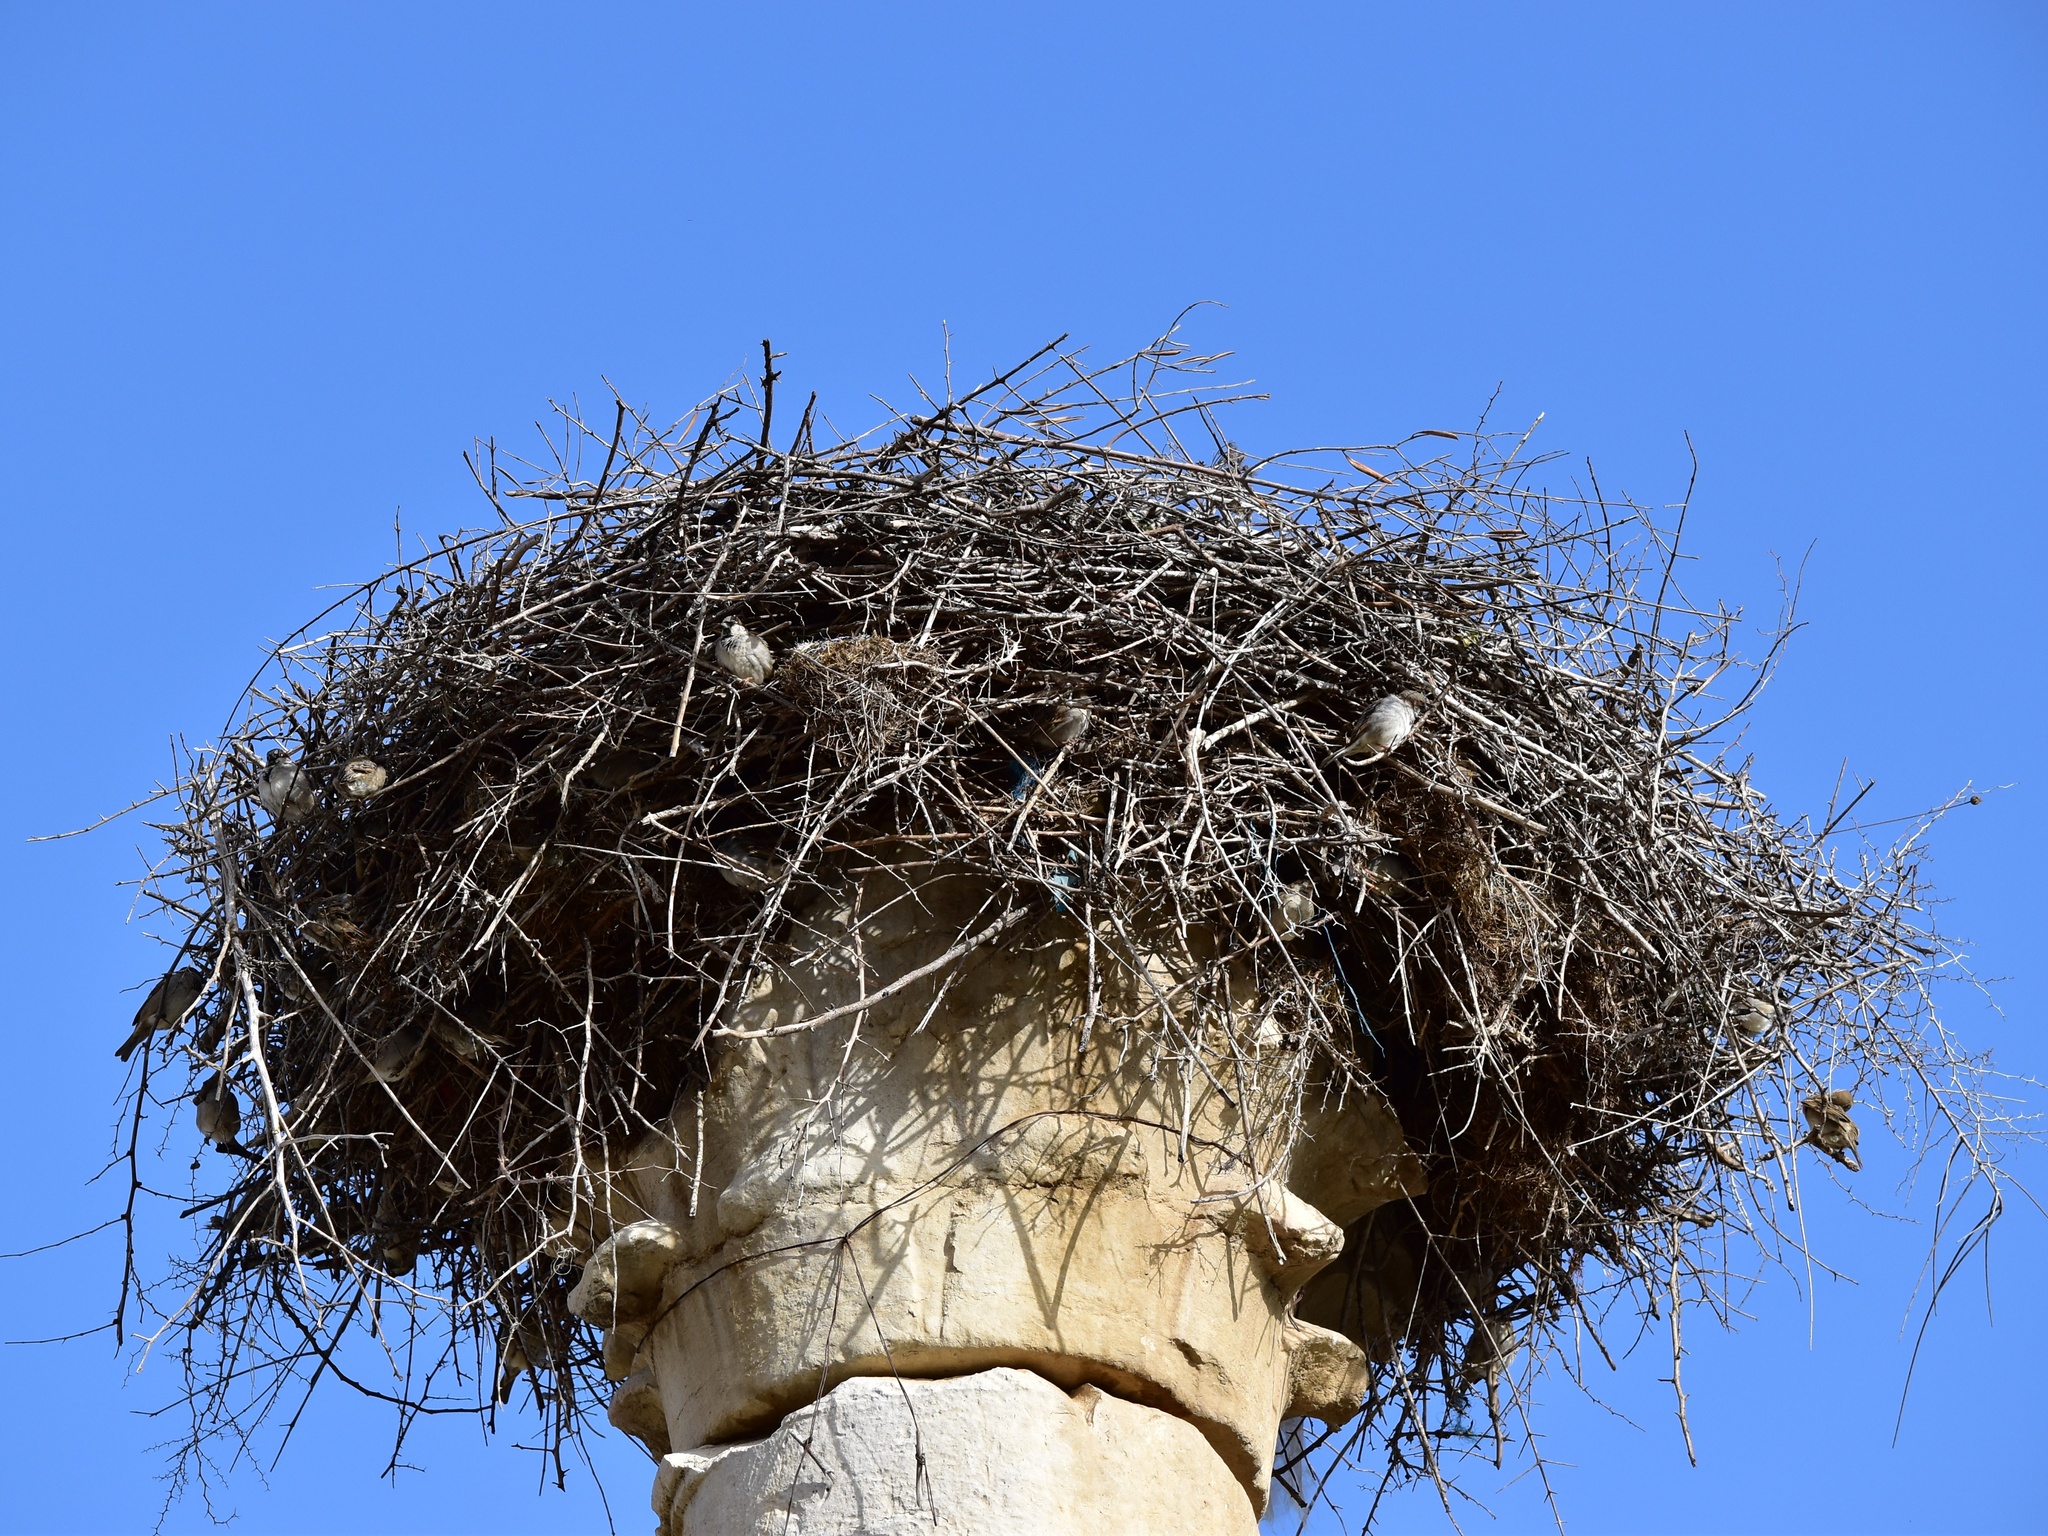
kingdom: Animalia
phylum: Chordata
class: Aves
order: Ciconiiformes
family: Ciconiidae
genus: Ciconia
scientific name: Ciconia ciconia
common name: White stork
